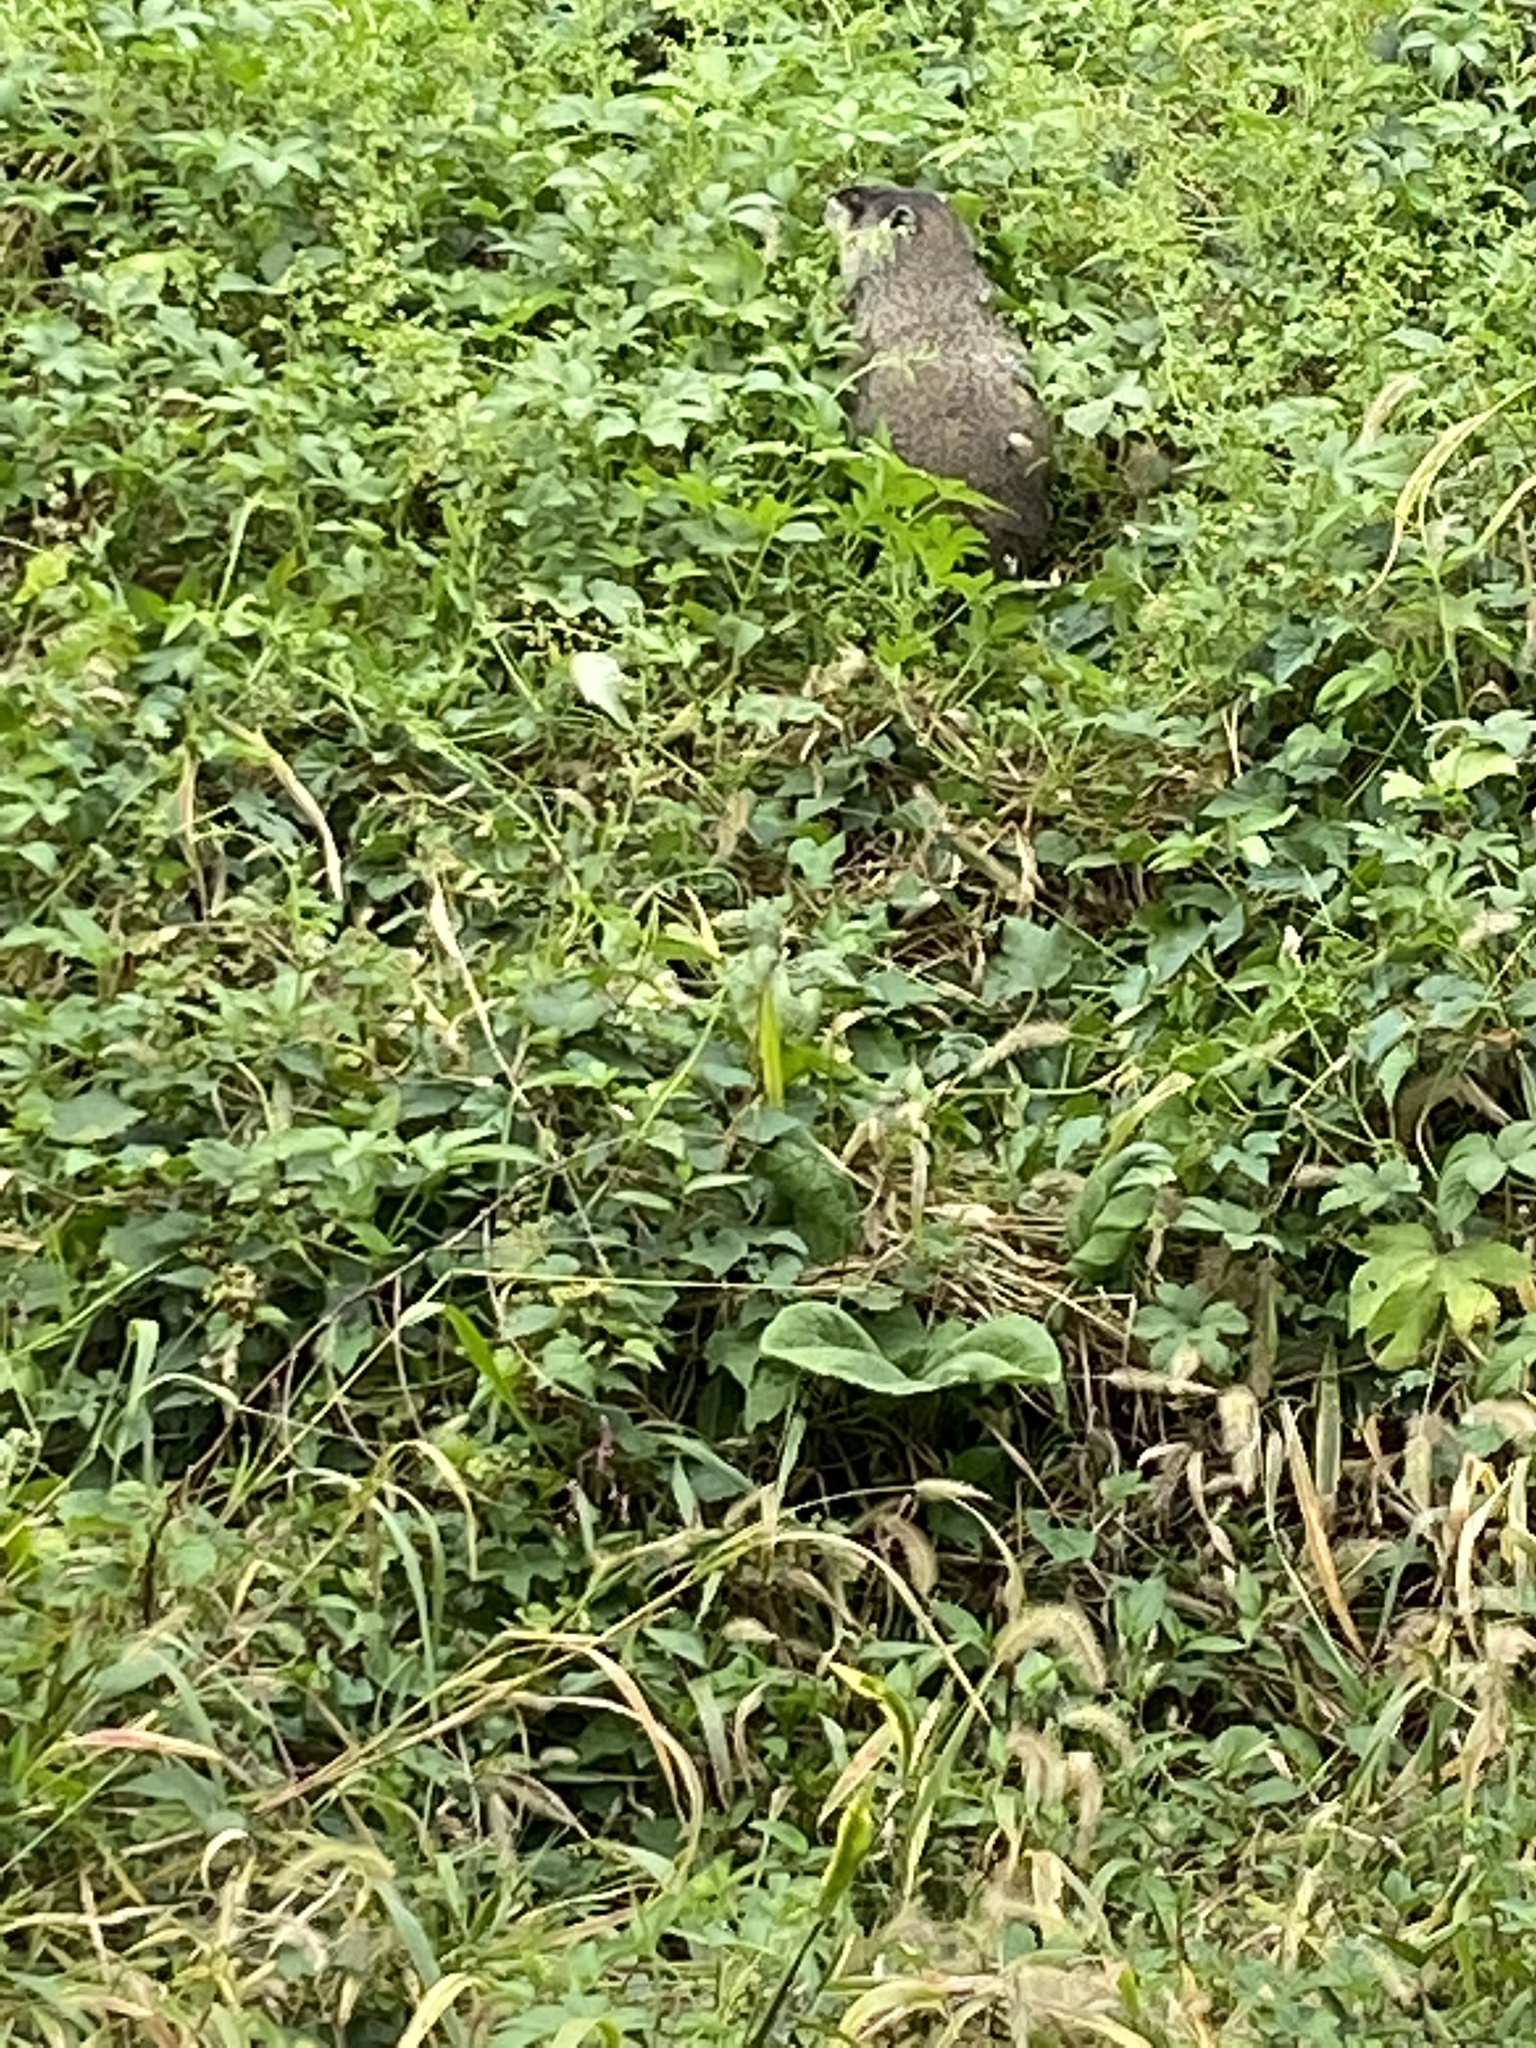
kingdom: Animalia
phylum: Chordata
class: Mammalia
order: Rodentia
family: Sciuridae
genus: Marmota
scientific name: Marmota monax
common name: Groundhog
